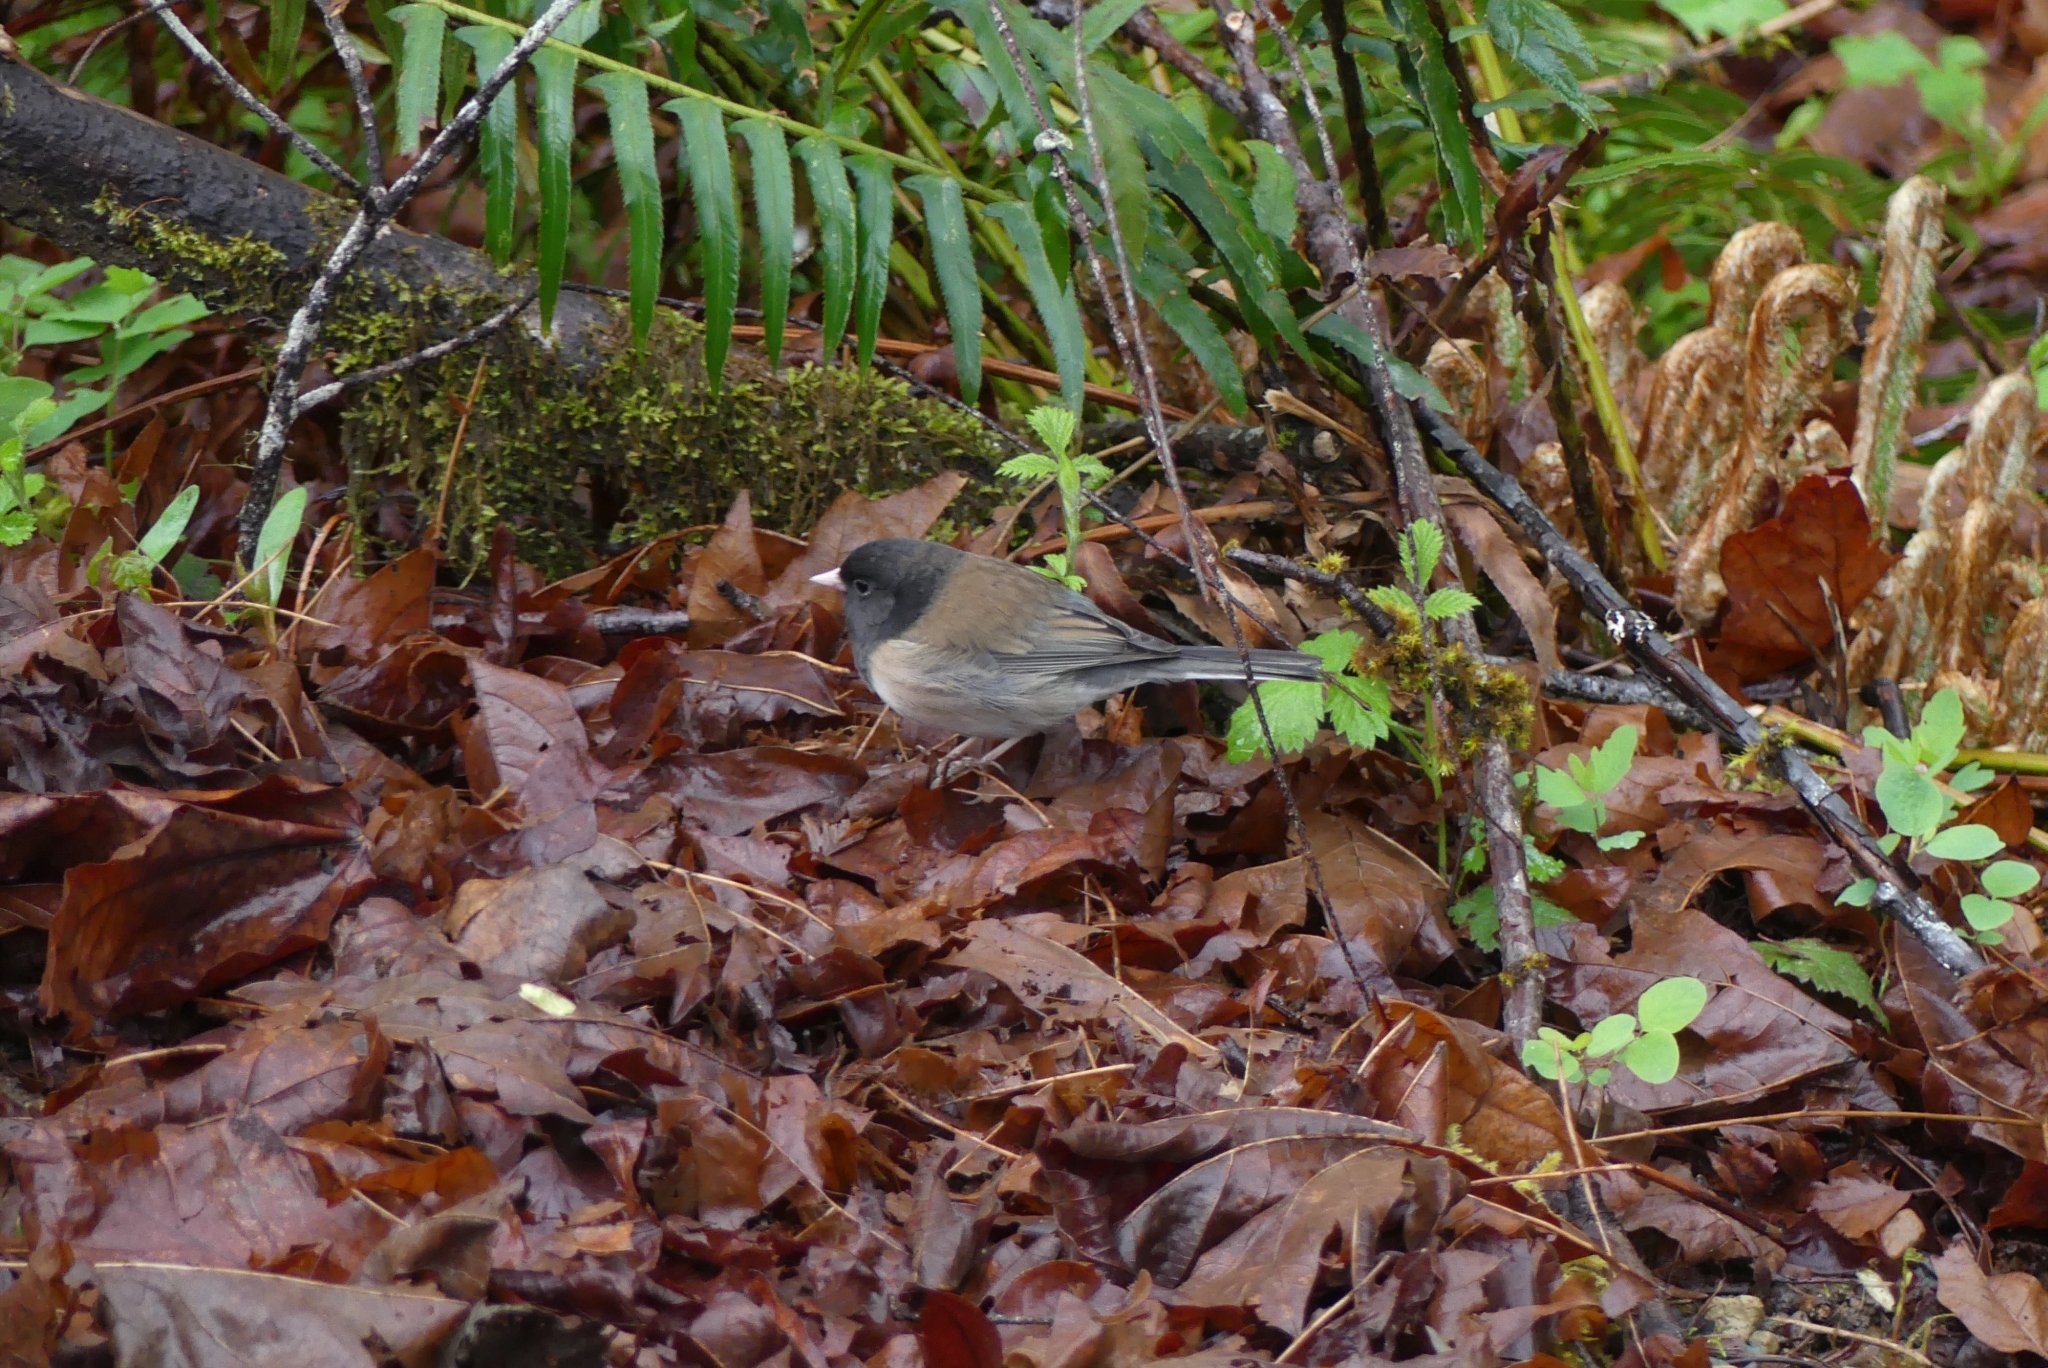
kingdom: Animalia
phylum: Chordata
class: Aves
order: Passeriformes
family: Passerellidae
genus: Junco
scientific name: Junco hyemalis
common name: Dark-eyed junco
